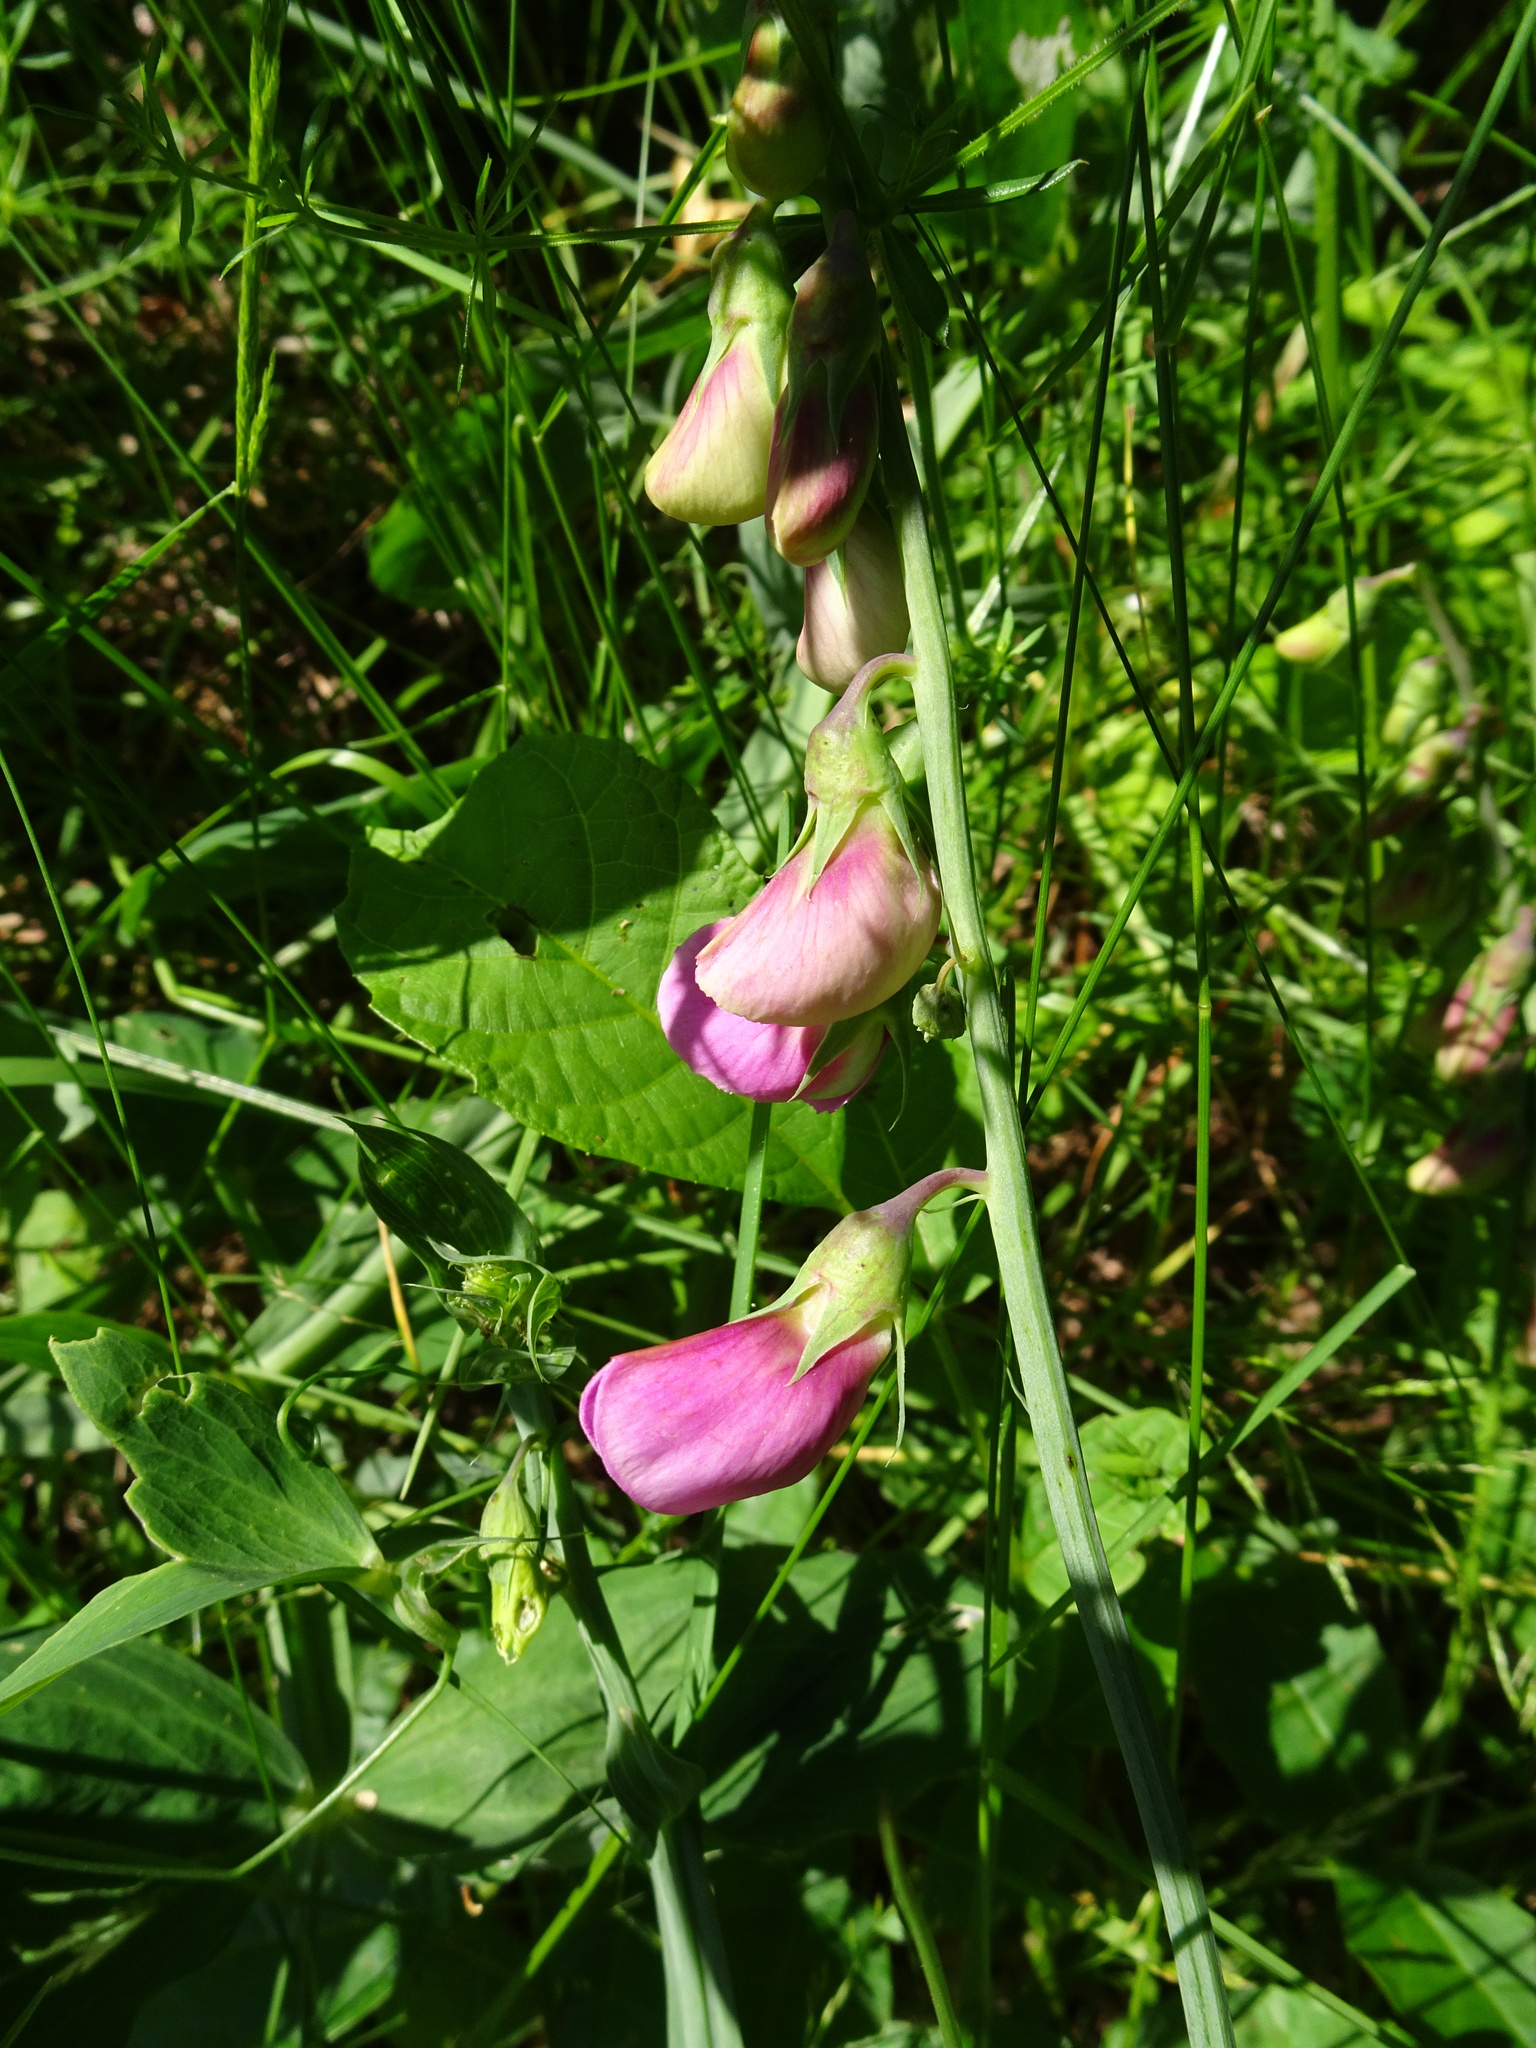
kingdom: Plantae
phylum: Tracheophyta
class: Magnoliopsida
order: Fabales
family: Fabaceae
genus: Lathyrus
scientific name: Lathyrus latifolius
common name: Perennial pea
